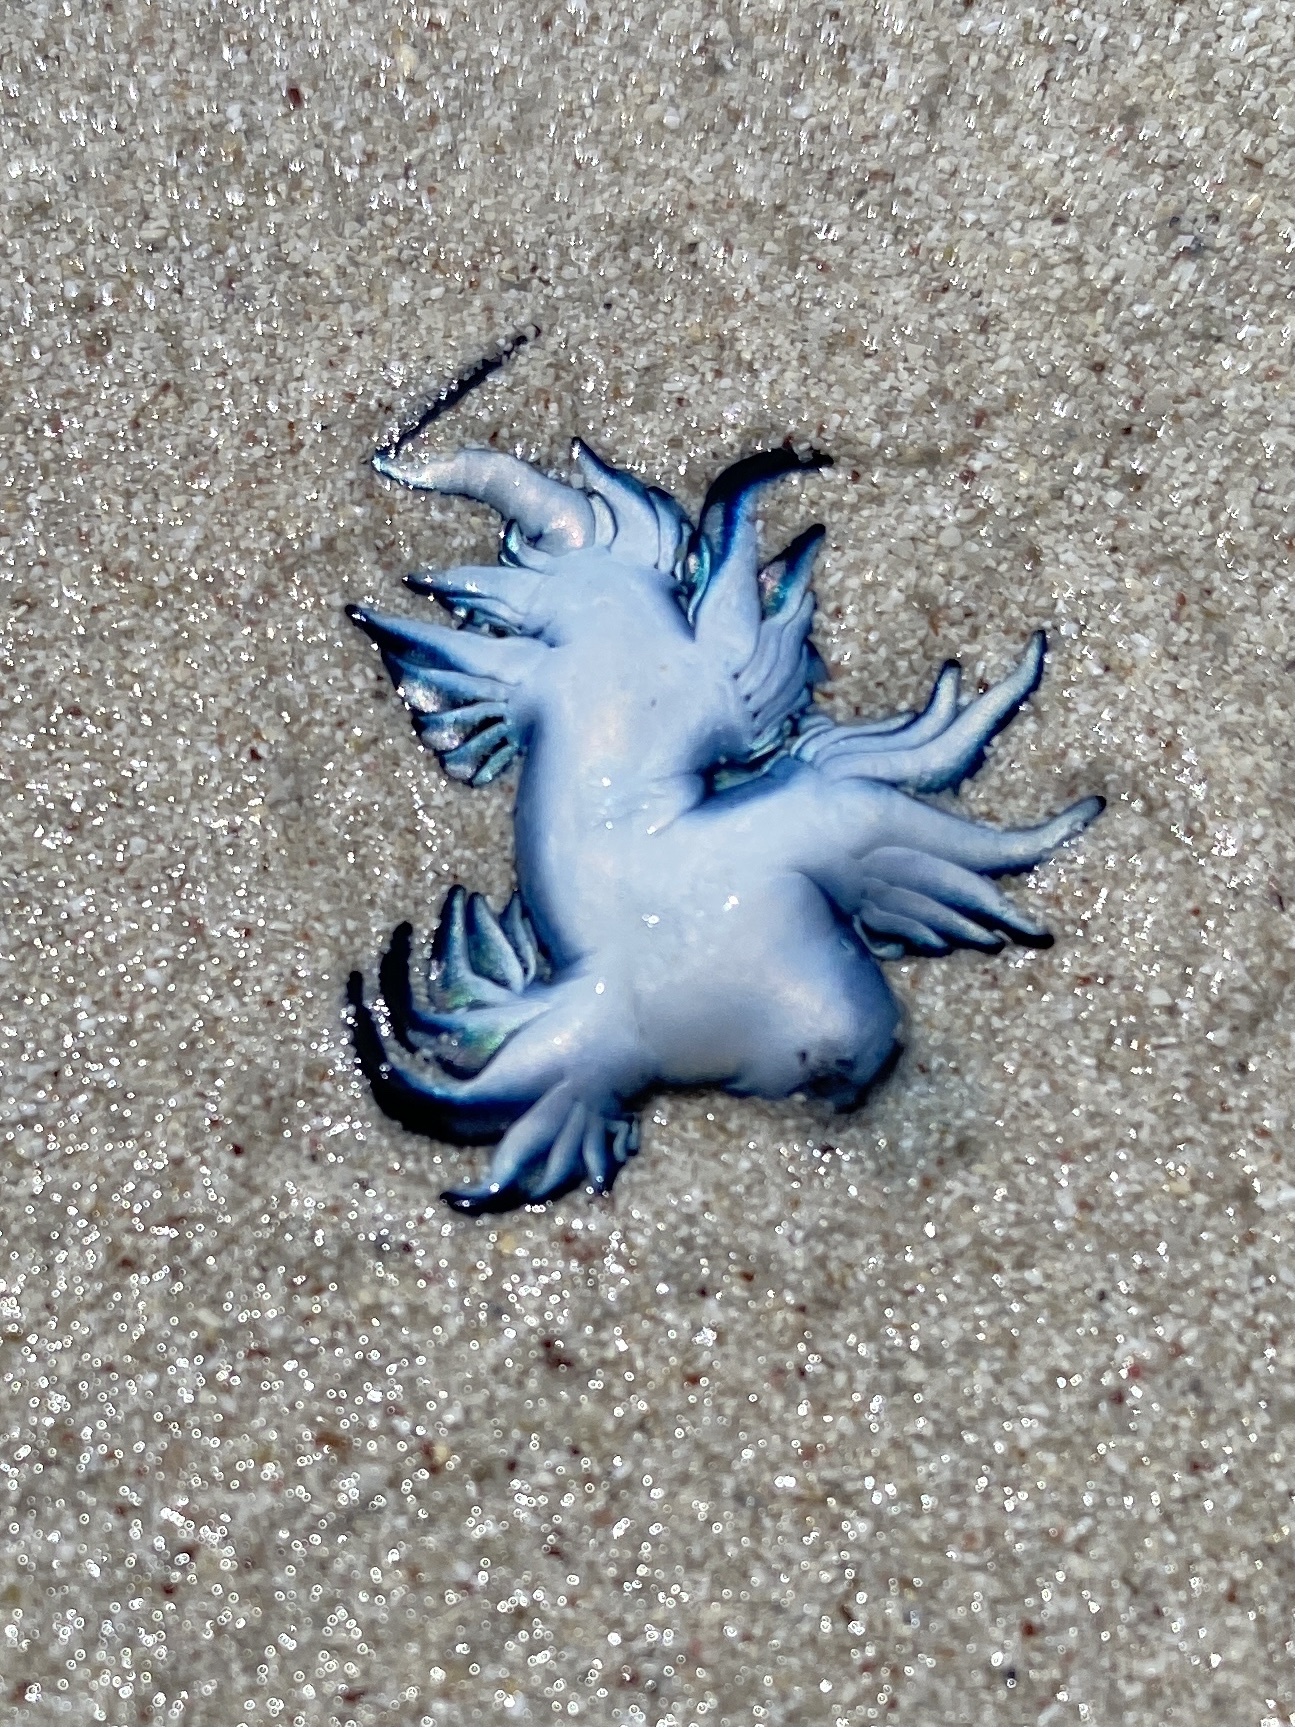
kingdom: Animalia
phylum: Mollusca
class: Gastropoda
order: Nudibranchia
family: Glaucidae
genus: Glaucus
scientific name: Glaucus atlanticus
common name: Purple ocean slug
